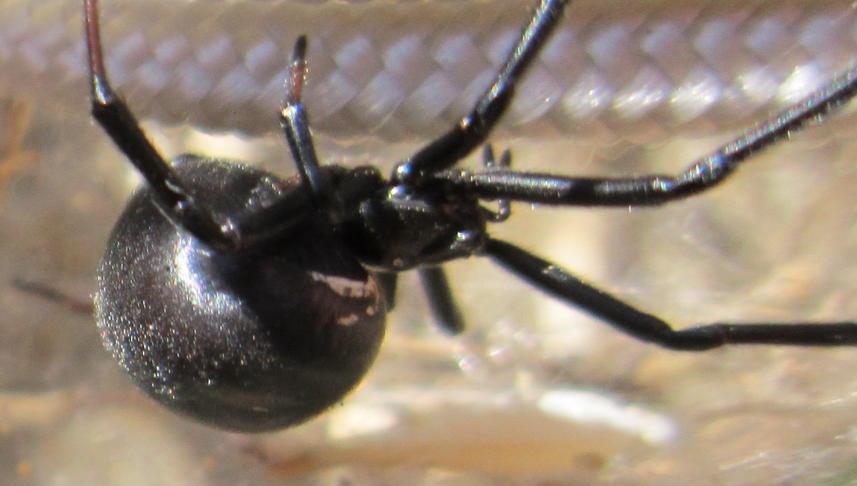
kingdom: Animalia
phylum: Arthropoda
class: Arachnida
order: Araneae
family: Theridiidae
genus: Latrodectus
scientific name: Latrodectus katipo
